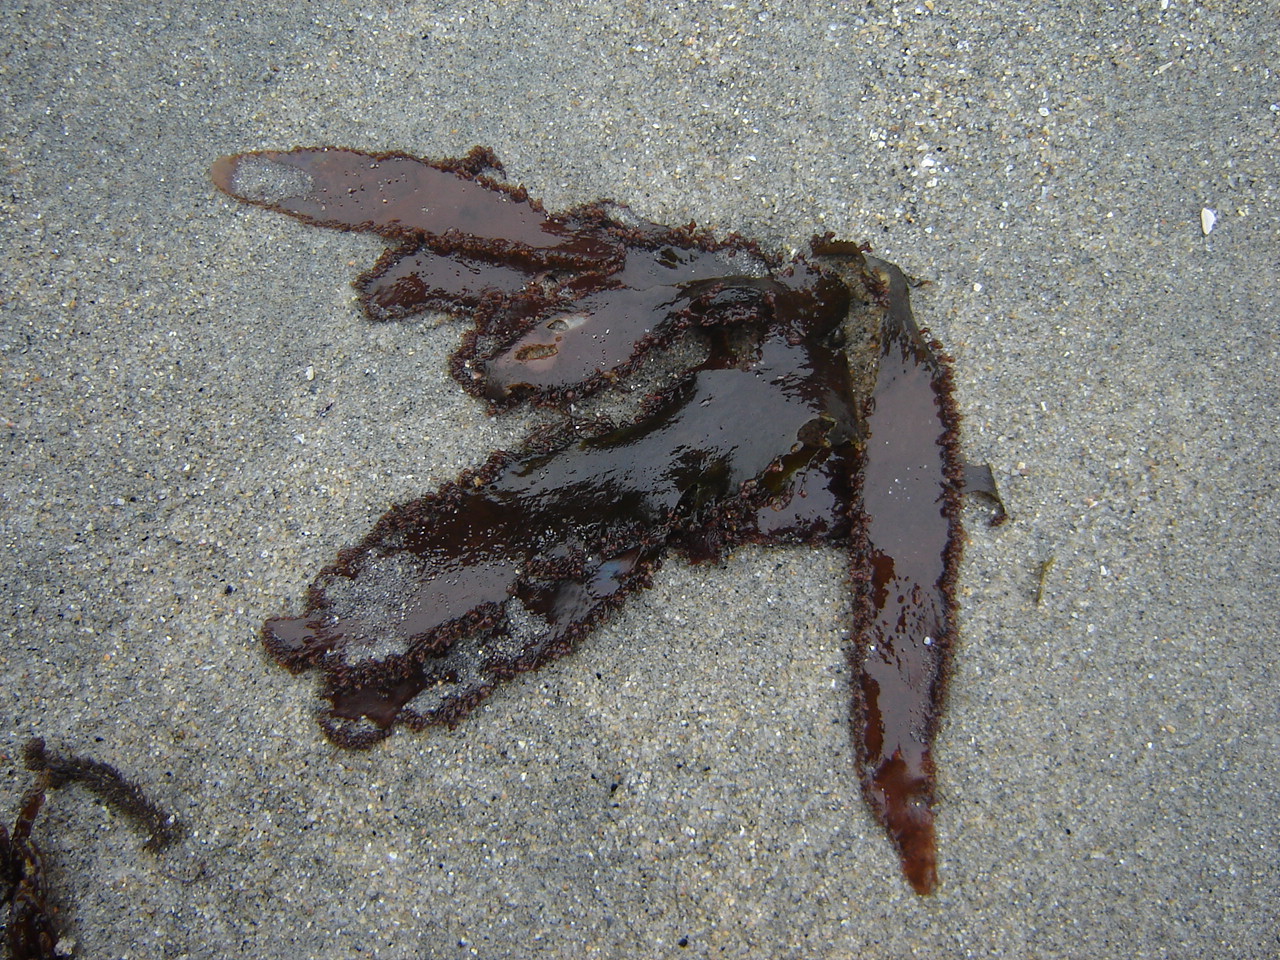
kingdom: Plantae
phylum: Rhodophyta
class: Florideophyceae
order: Gigartinales
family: Kallymeniaceae
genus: Blastophyllis
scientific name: Blastophyllis calliblepharoides
